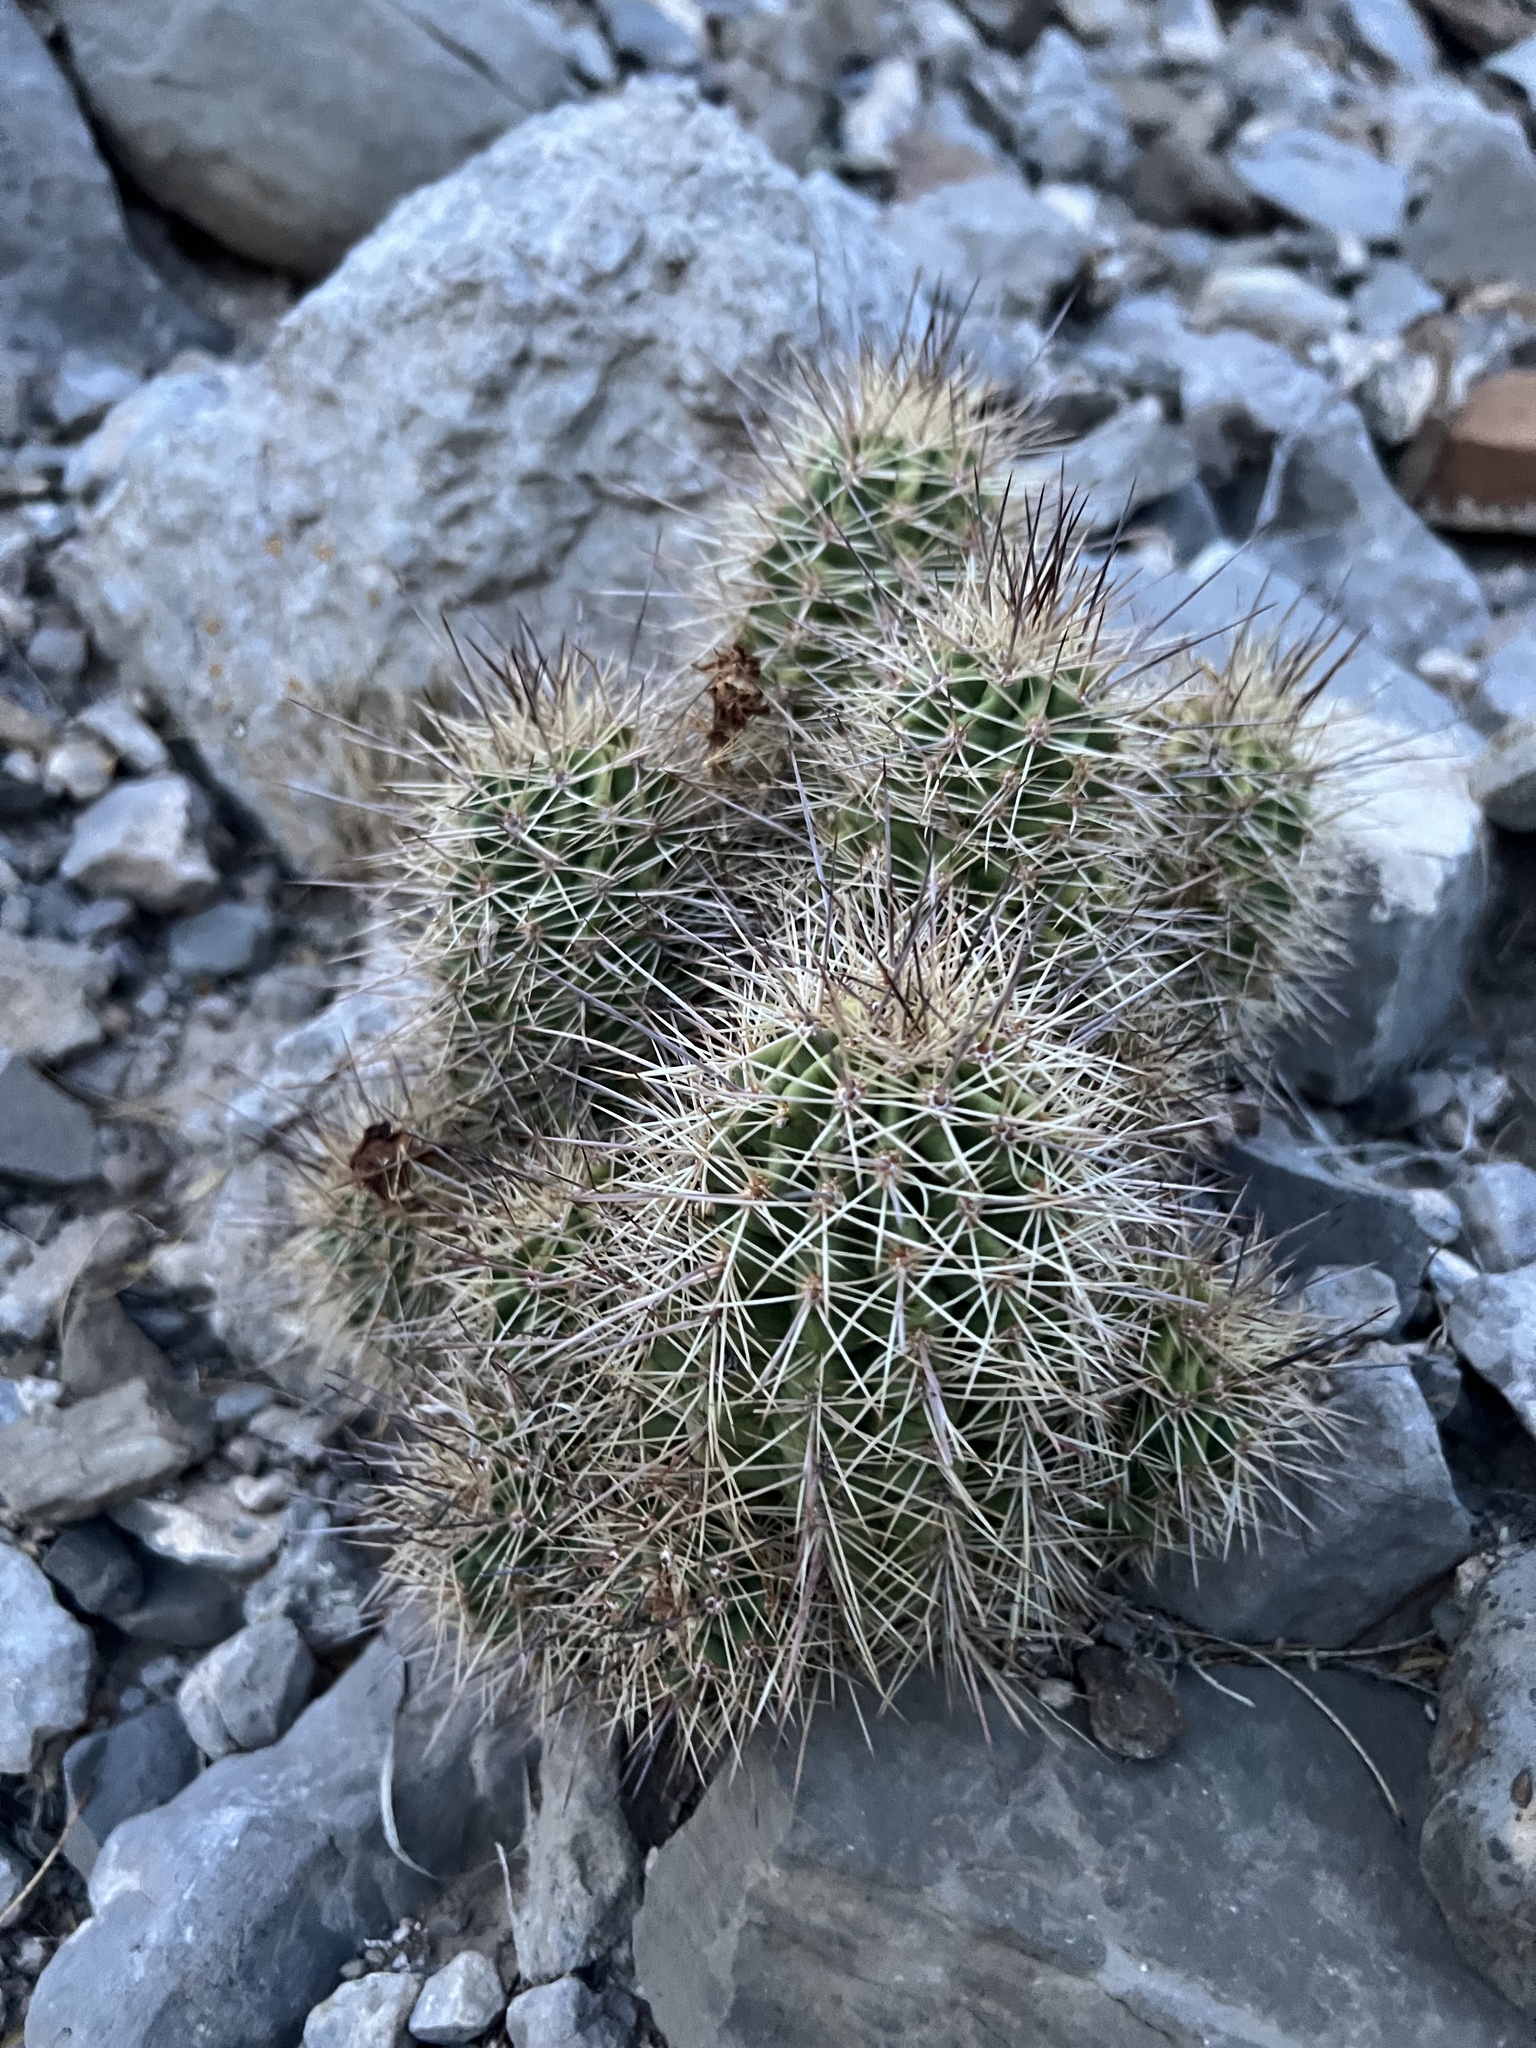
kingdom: Plantae
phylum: Tracheophyta
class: Magnoliopsida
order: Caryophyllales
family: Cactaceae
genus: Echinocereus
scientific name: Echinocereus coccineus
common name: Scarlet hedgehog cactus
